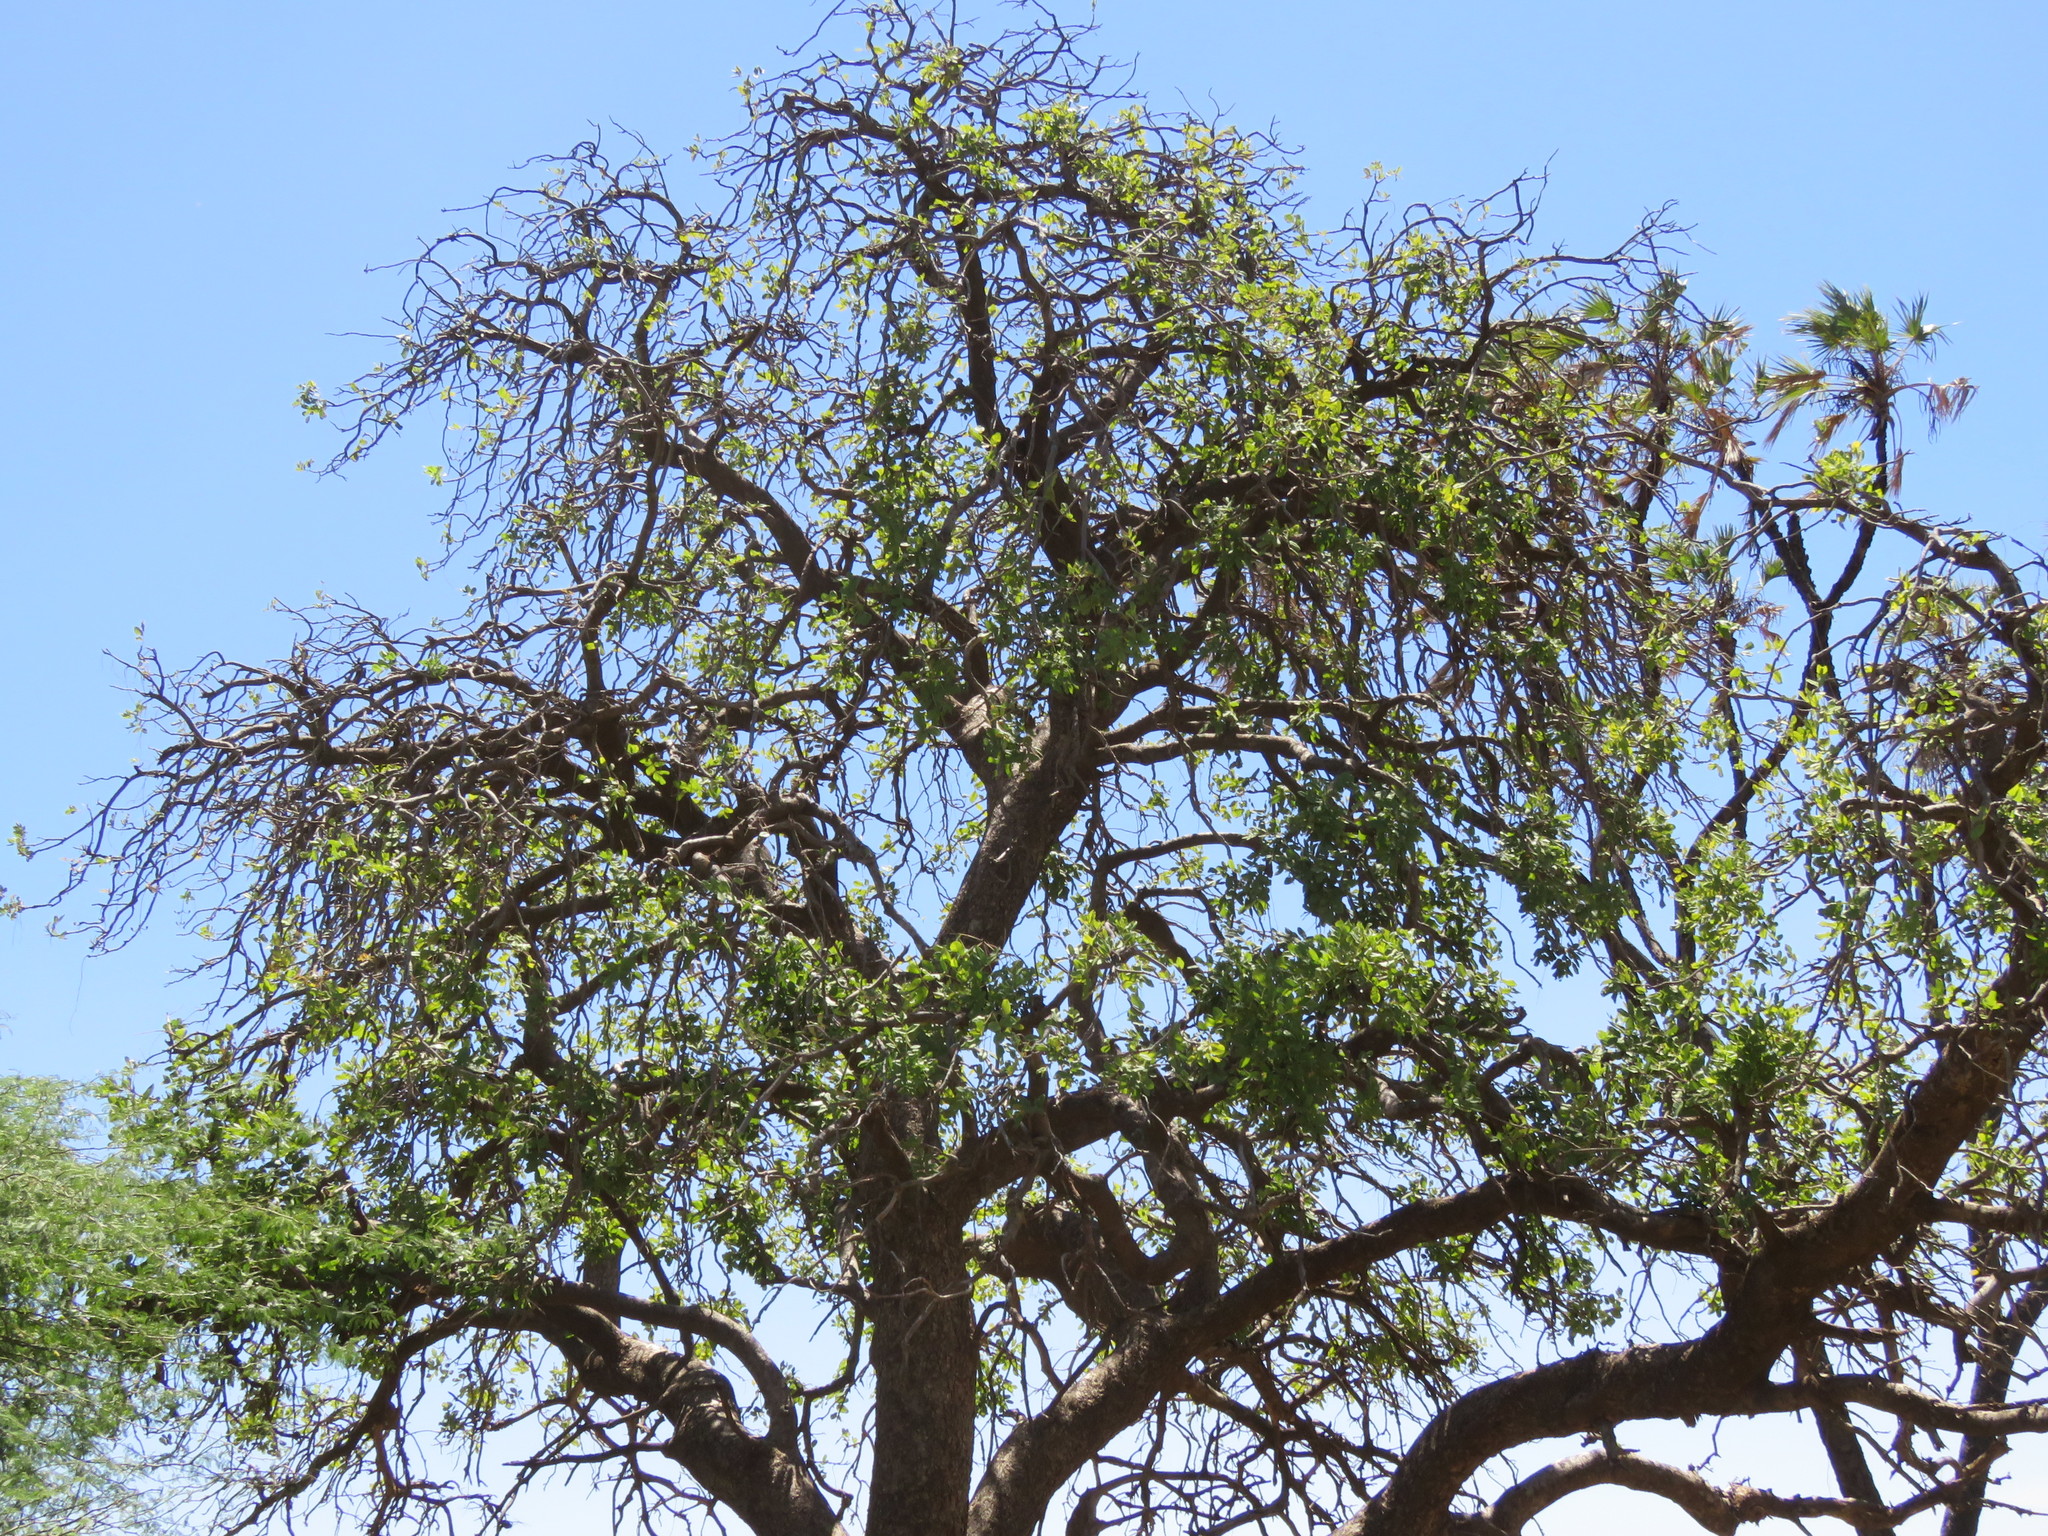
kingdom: Plantae
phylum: Tracheophyta
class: Magnoliopsida
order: Gentianales
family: Apocynaceae
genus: Calotropis
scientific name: Calotropis procera
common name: Roostertree
